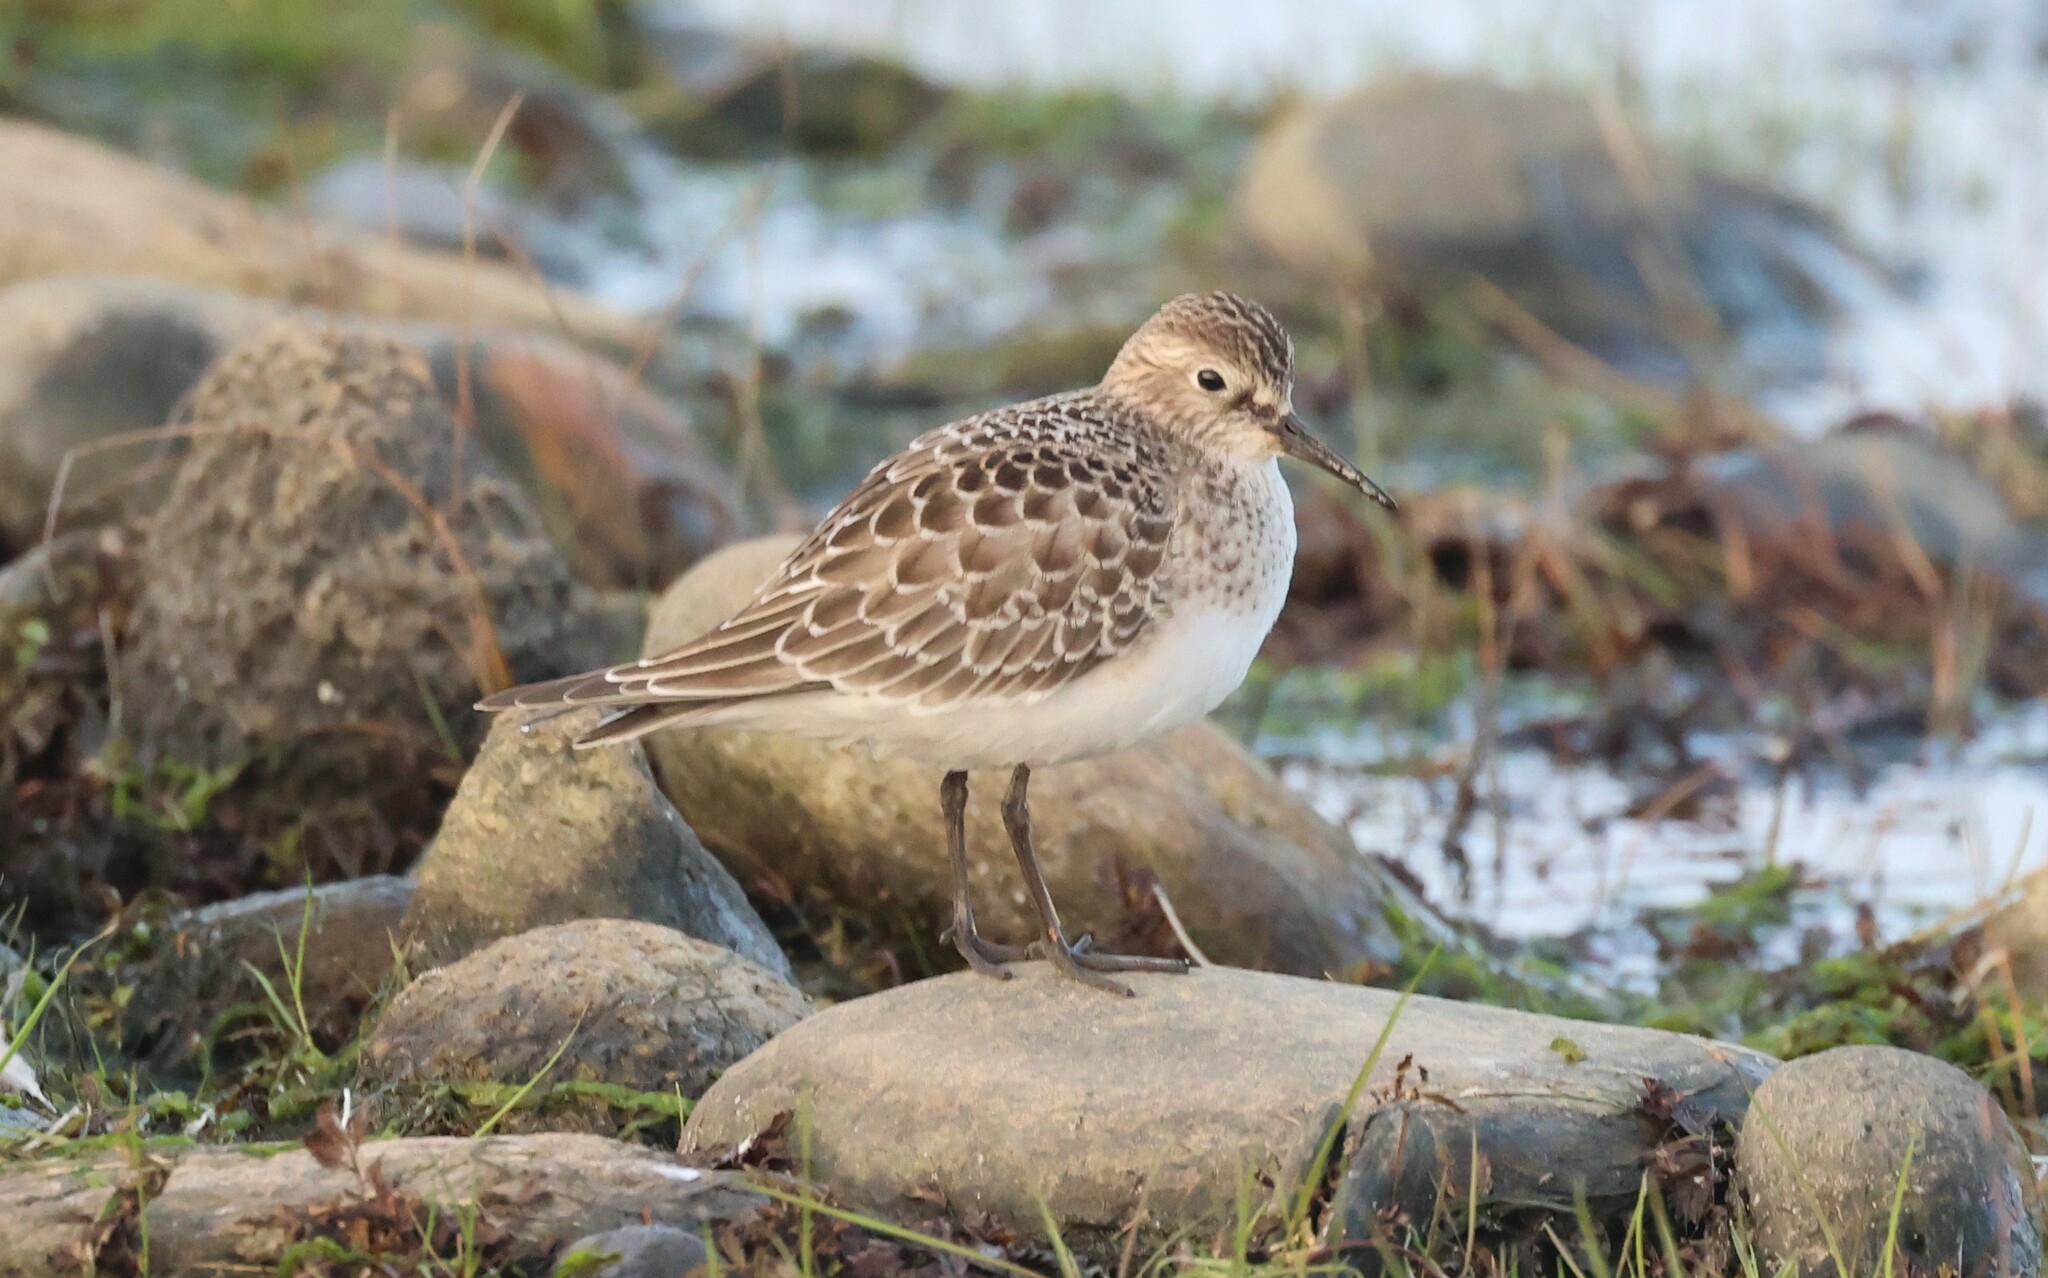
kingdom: Animalia
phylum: Chordata
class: Aves
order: Charadriiformes
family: Scolopacidae
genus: Calidris
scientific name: Calidris bairdii
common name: Baird's sandpiper
